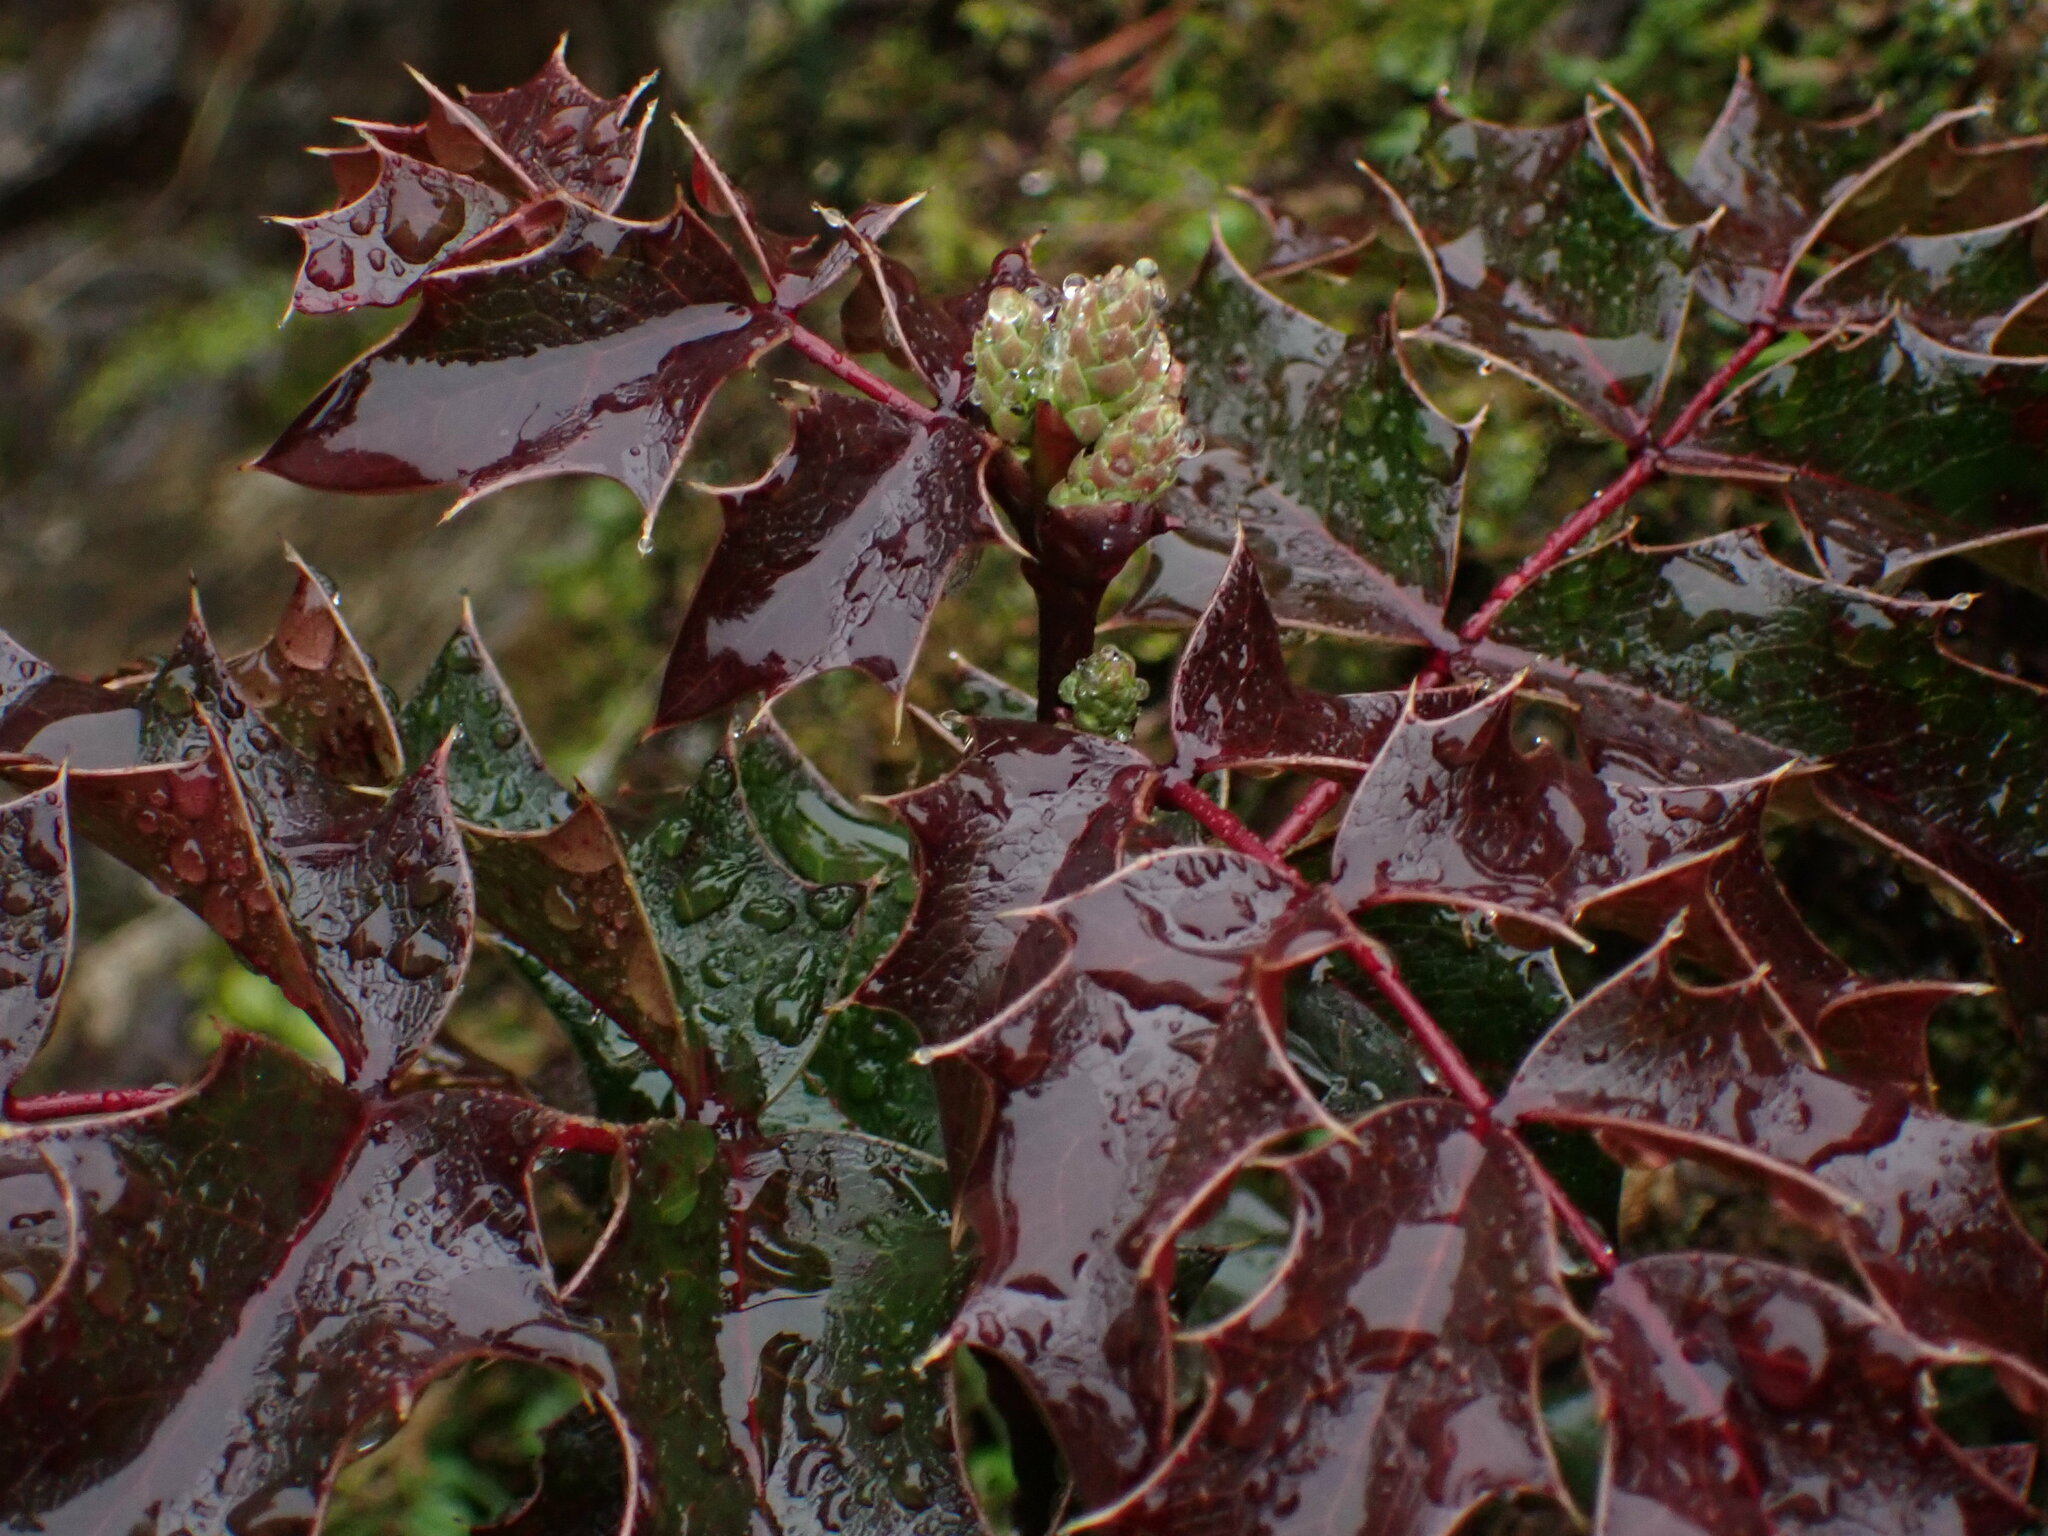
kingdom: Plantae
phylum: Tracheophyta
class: Magnoliopsida
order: Ranunculales
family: Berberidaceae
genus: Mahonia
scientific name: Mahonia aquifolium
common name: Oregon-grape
